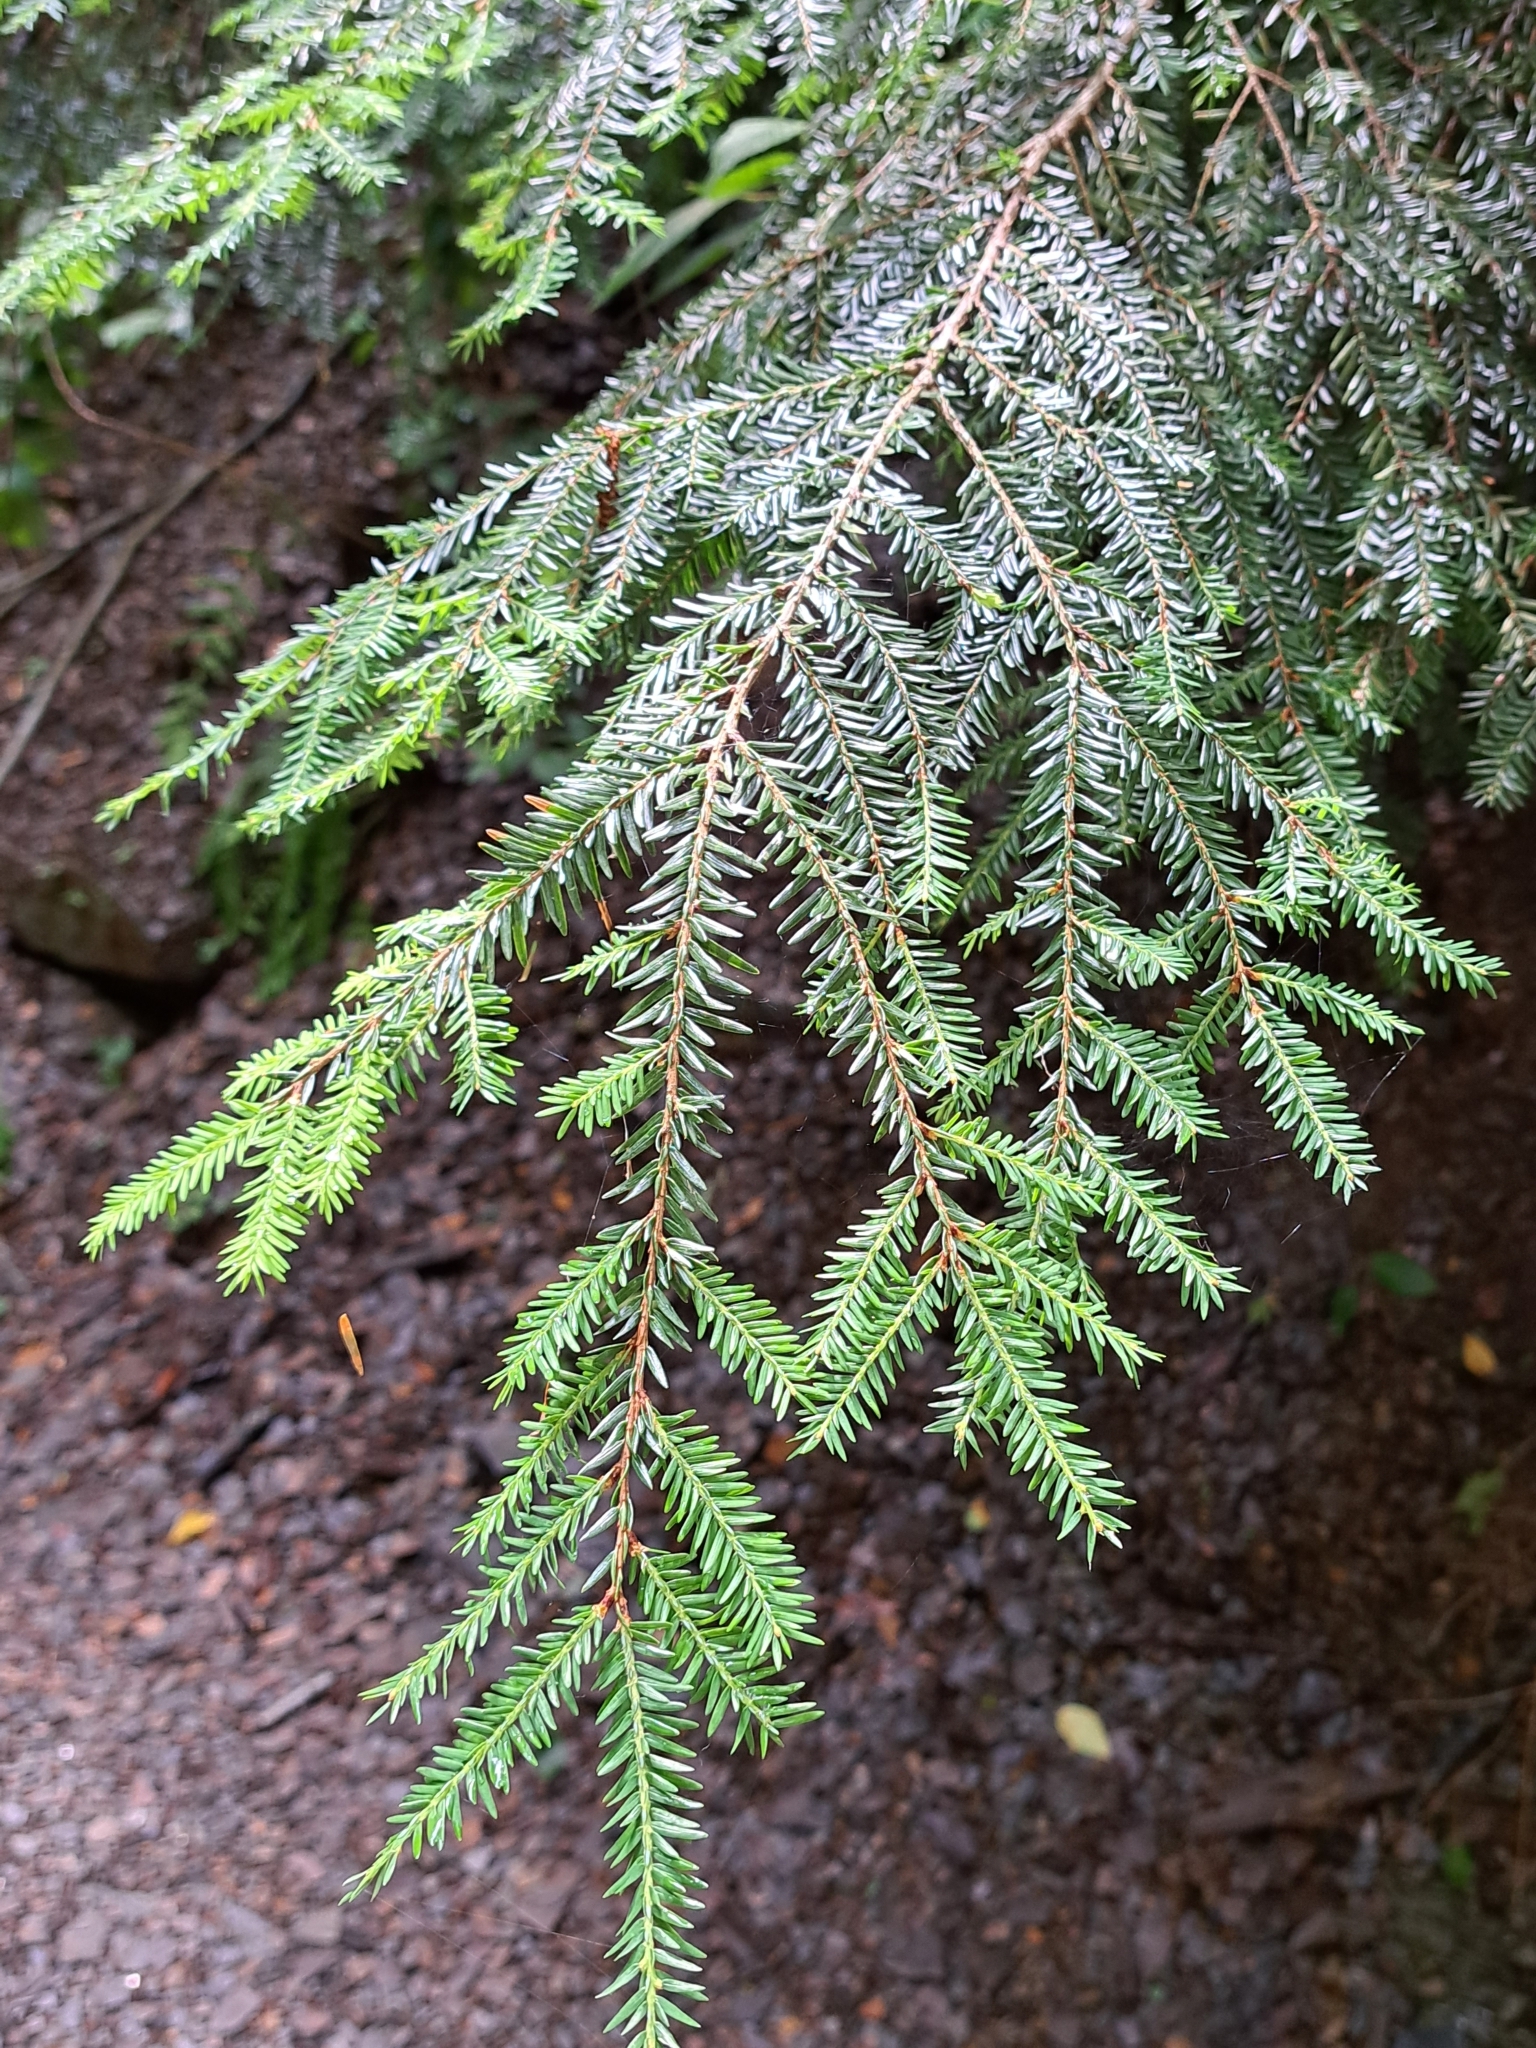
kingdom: Plantae
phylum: Tracheophyta
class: Pinopsida
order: Pinales
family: Pinaceae
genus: Tsuga
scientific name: Tsuga canadensis
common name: Eastern hemlock
